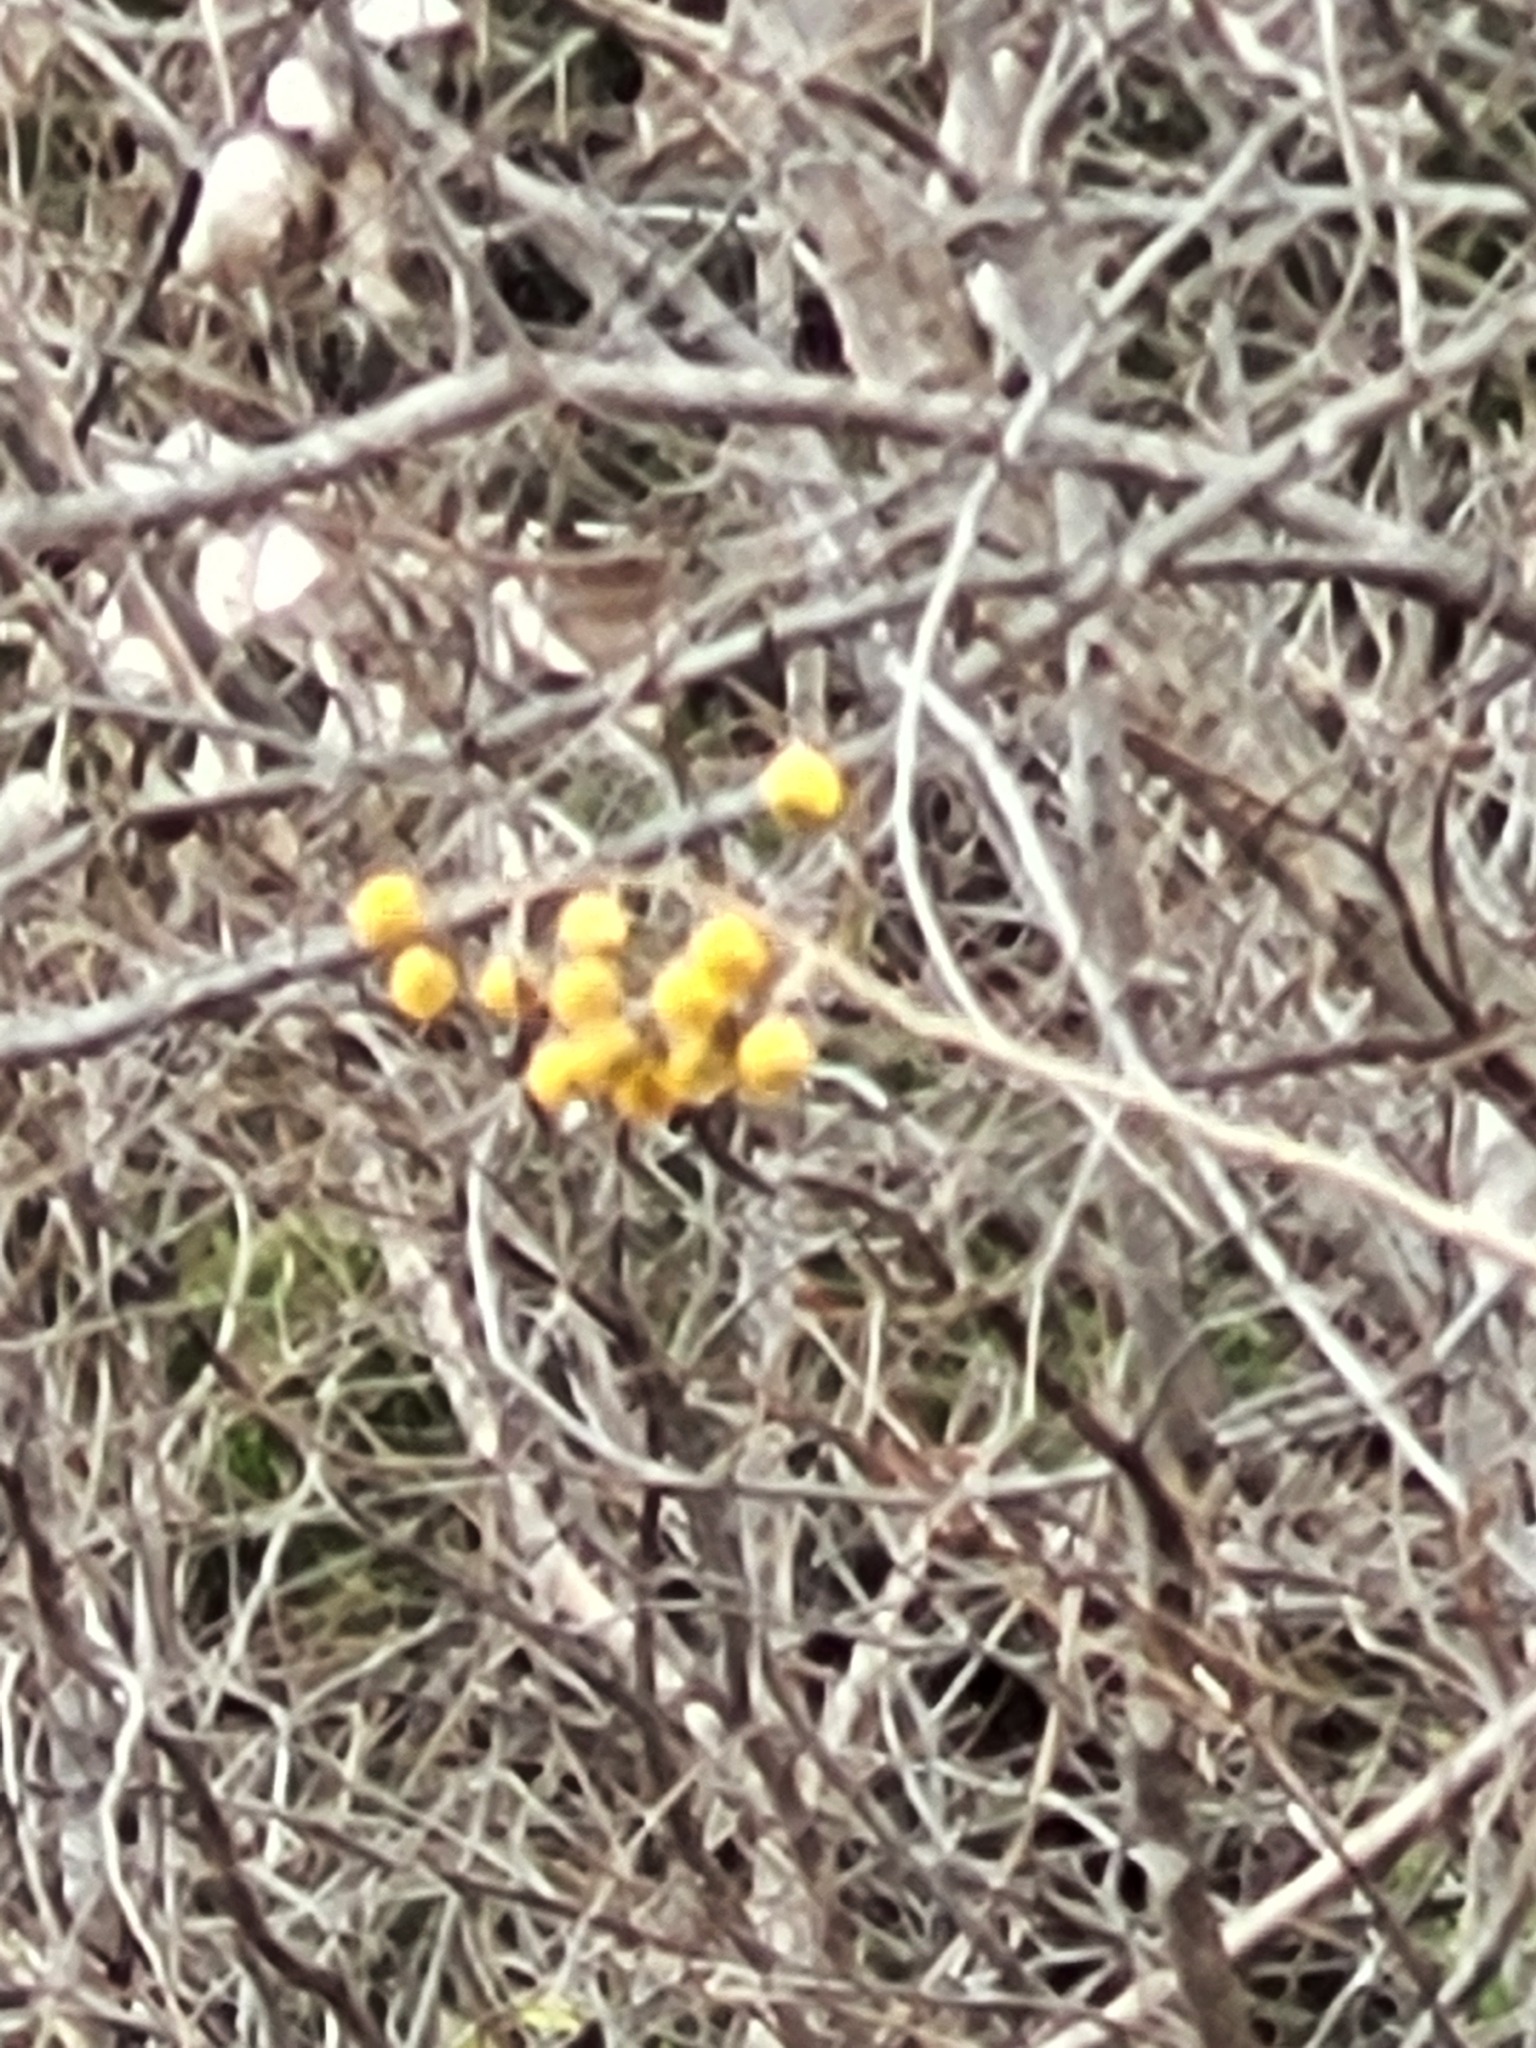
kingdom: Plantae
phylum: Tracheophyta
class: Magnoliopsida
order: Sapindales
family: Sapindaceae
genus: Sapindus
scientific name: Sapindus drummondii
